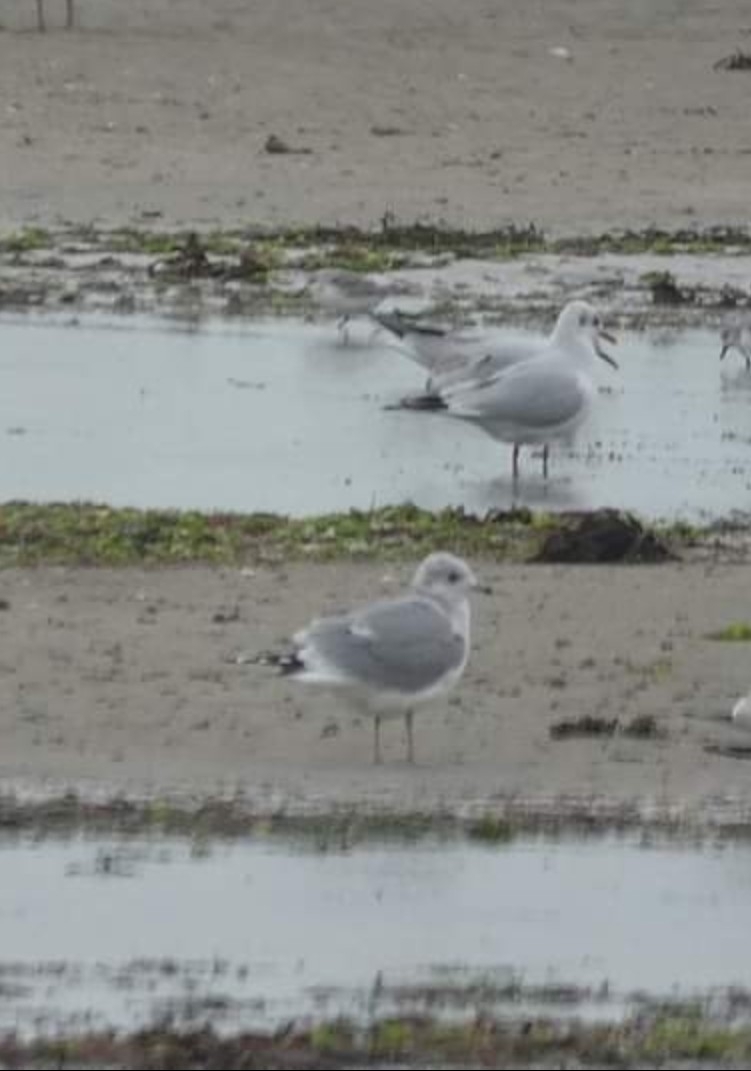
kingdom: Animalia
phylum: Chordata
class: Aves
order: Charadriiformes
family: Laridae
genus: Larus
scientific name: Larus canus
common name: Mew gull
